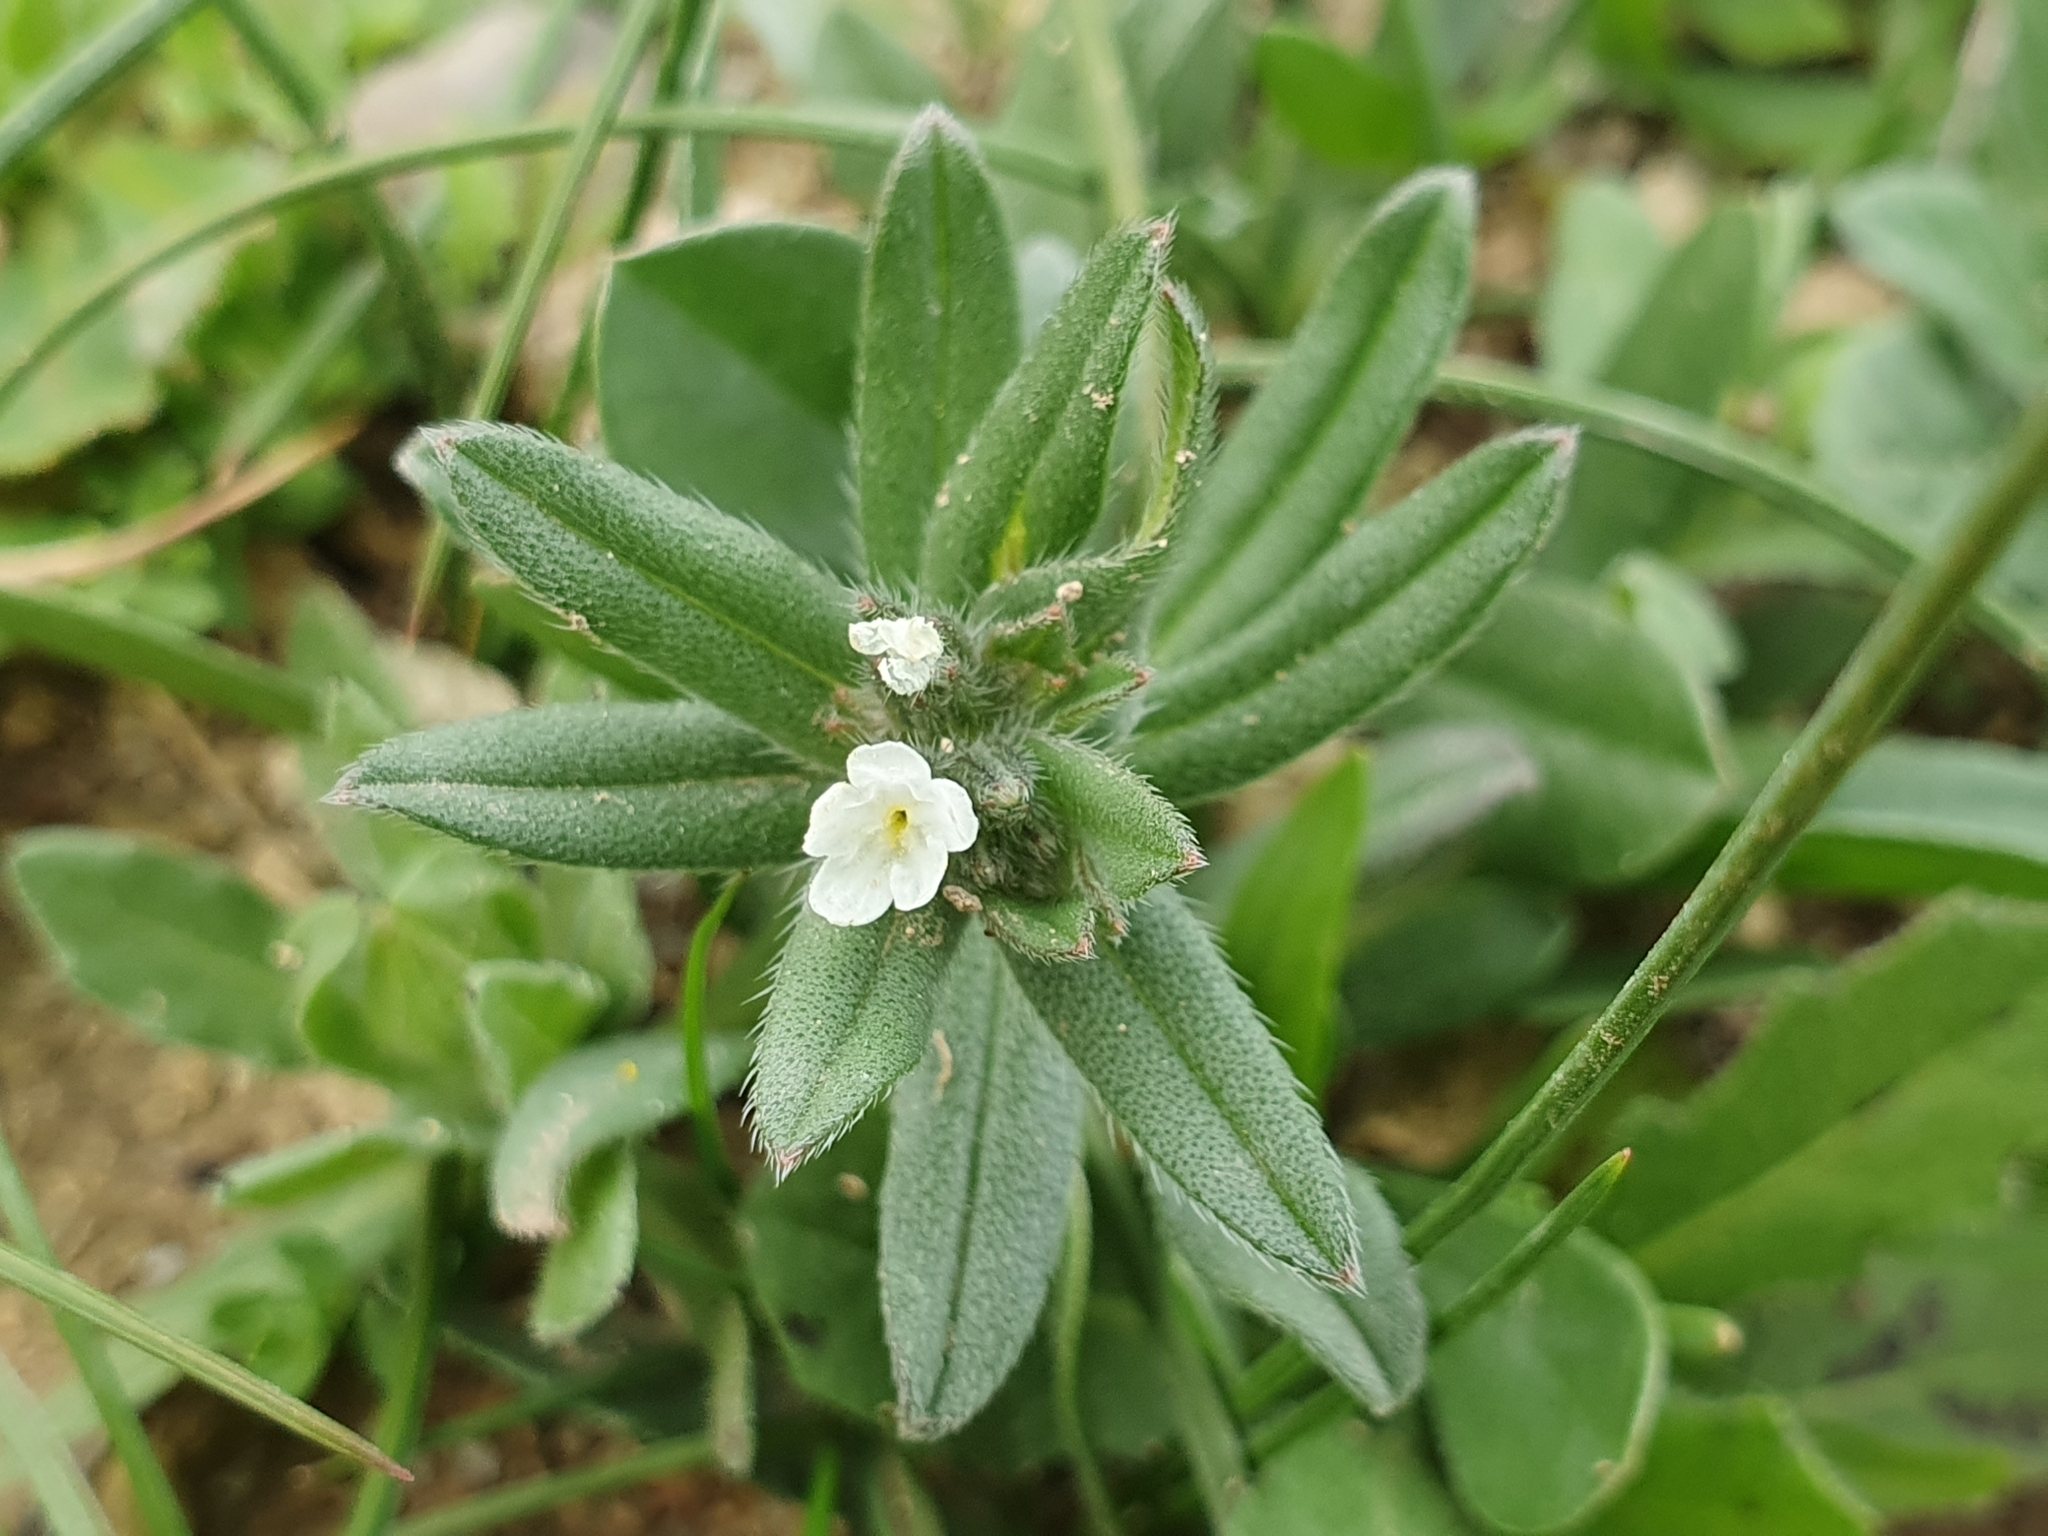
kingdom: Plantae
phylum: Tracheophyta
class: Magnoliopsida
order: Boraginales
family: Boraginaceae
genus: Buglossoides
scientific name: Buglossoides arvensis
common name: Corn gromwell
